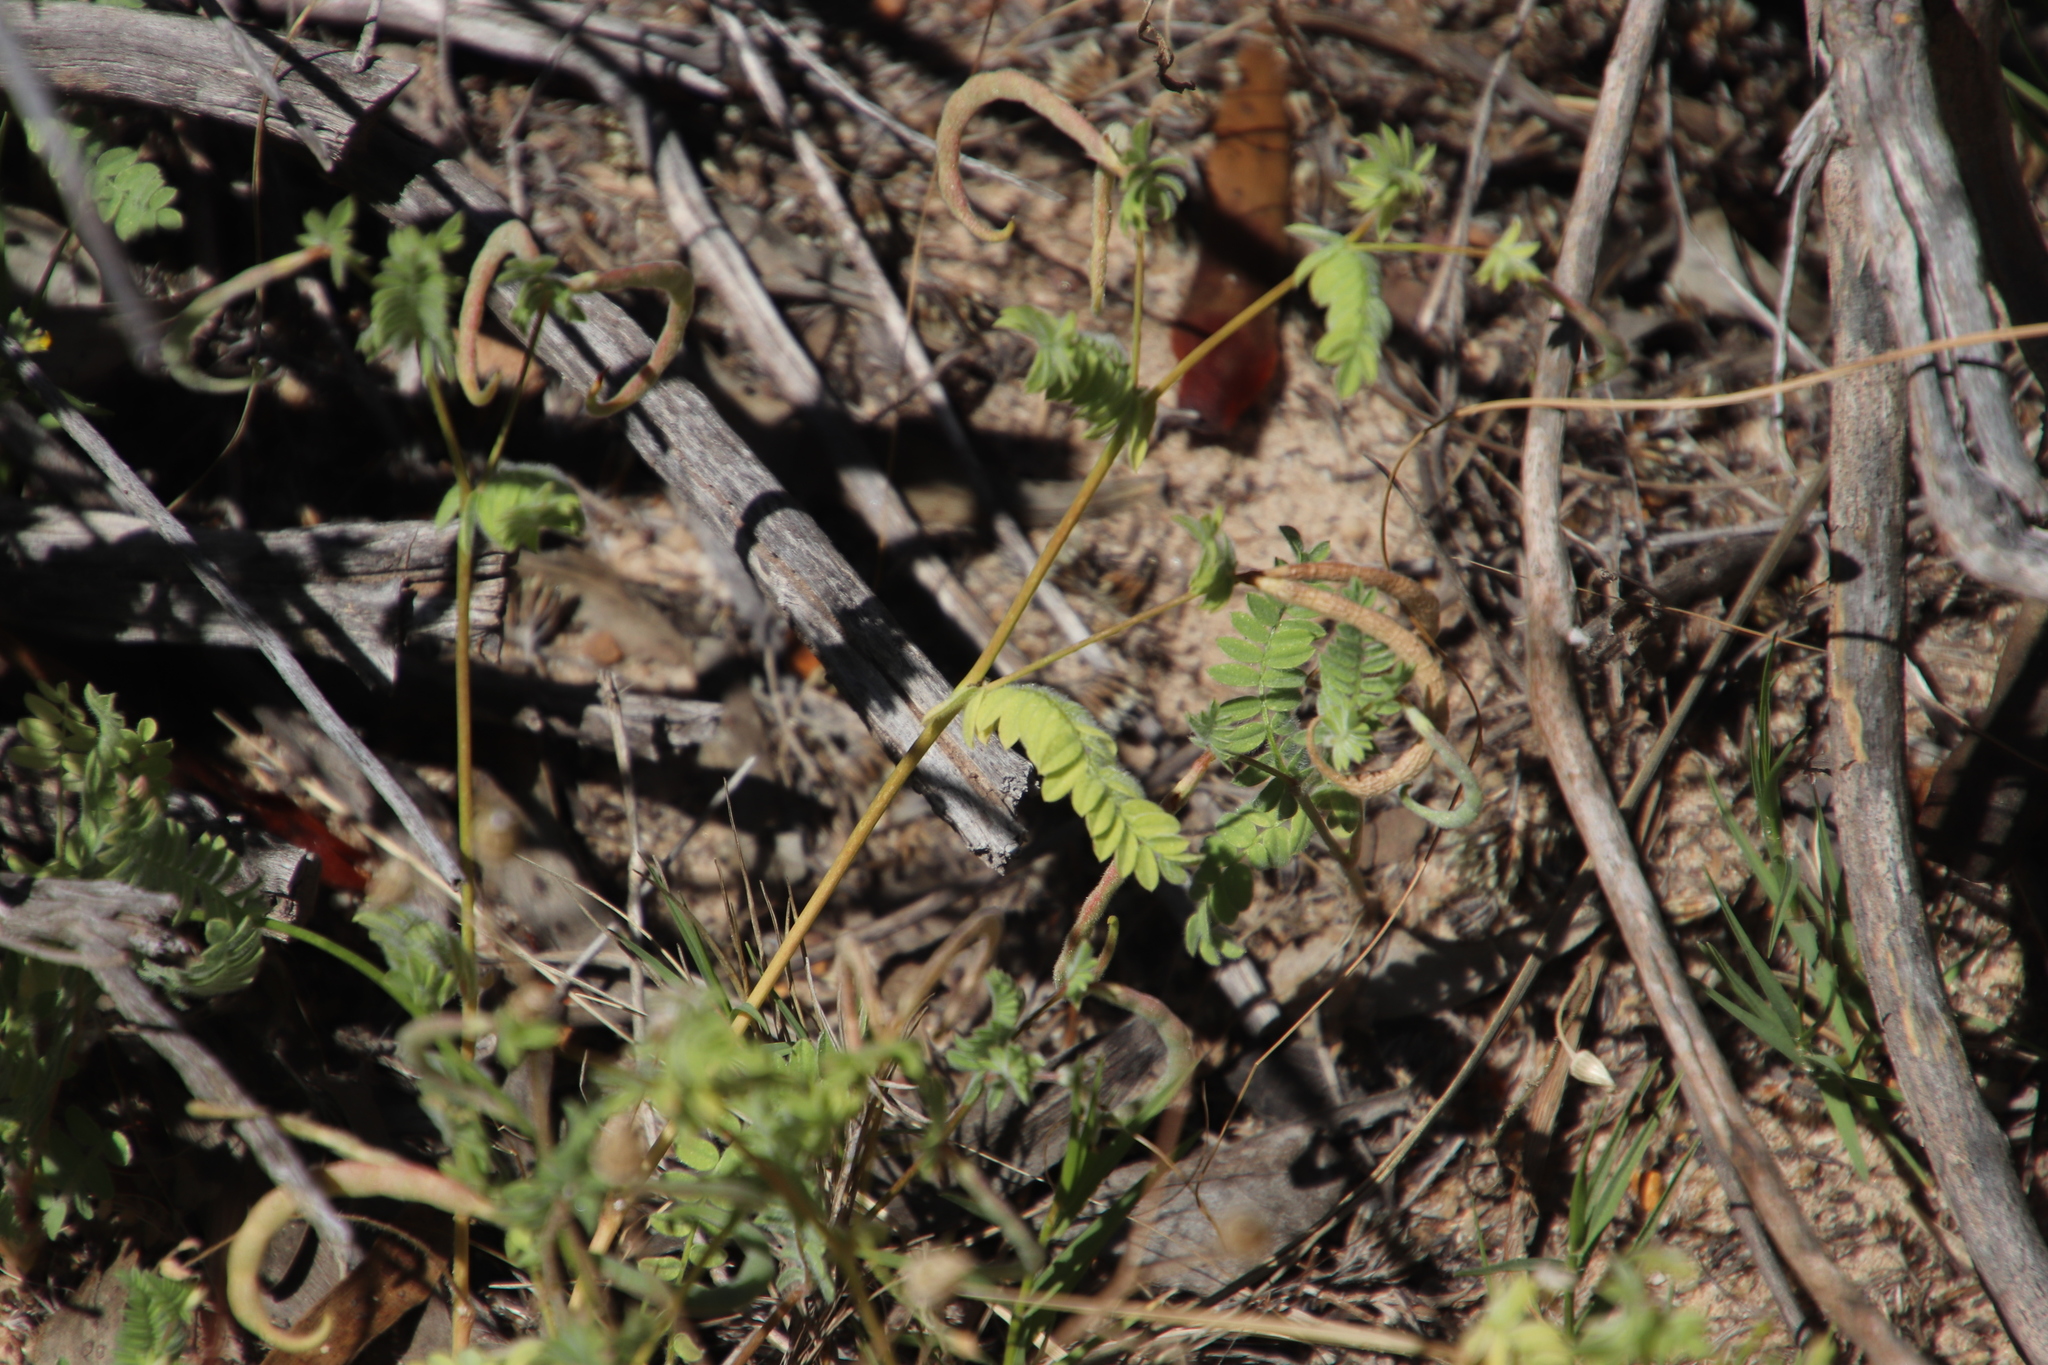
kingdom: Plantae
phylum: Tracheophyta
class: Magnoliopsida
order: Fabales
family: Fabaceae
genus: Ornithopus
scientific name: Ornithopus compressus
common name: Yellow serradella
